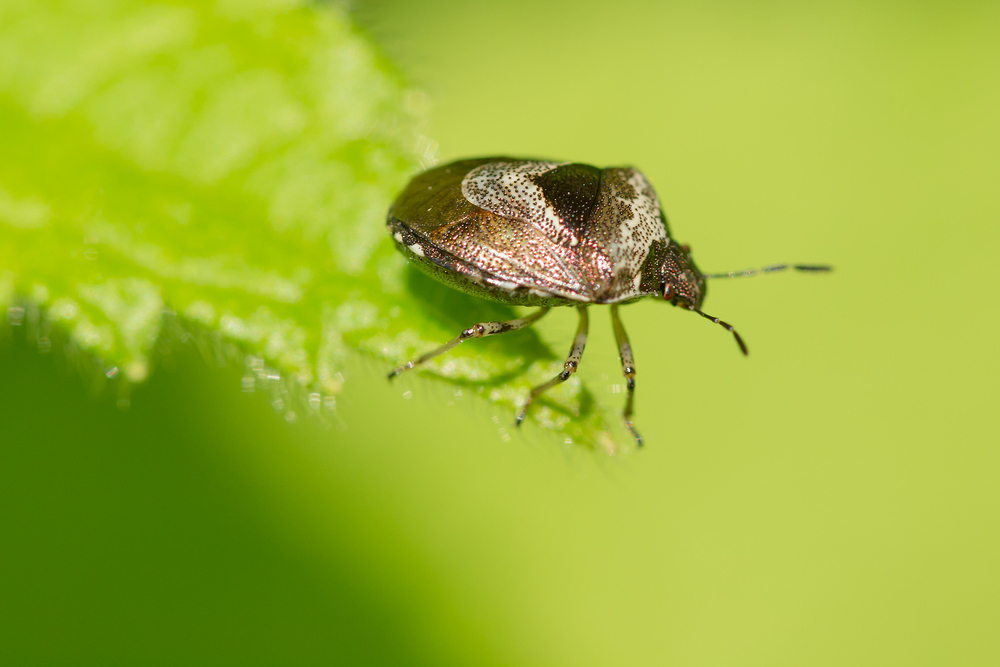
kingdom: Animalia
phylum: Arthropoda
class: Insecta
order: Hemiptera
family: Pentatomidae
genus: Eysarcoris
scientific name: Eysarcoris venustissimus
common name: Woundwort shieldbug
